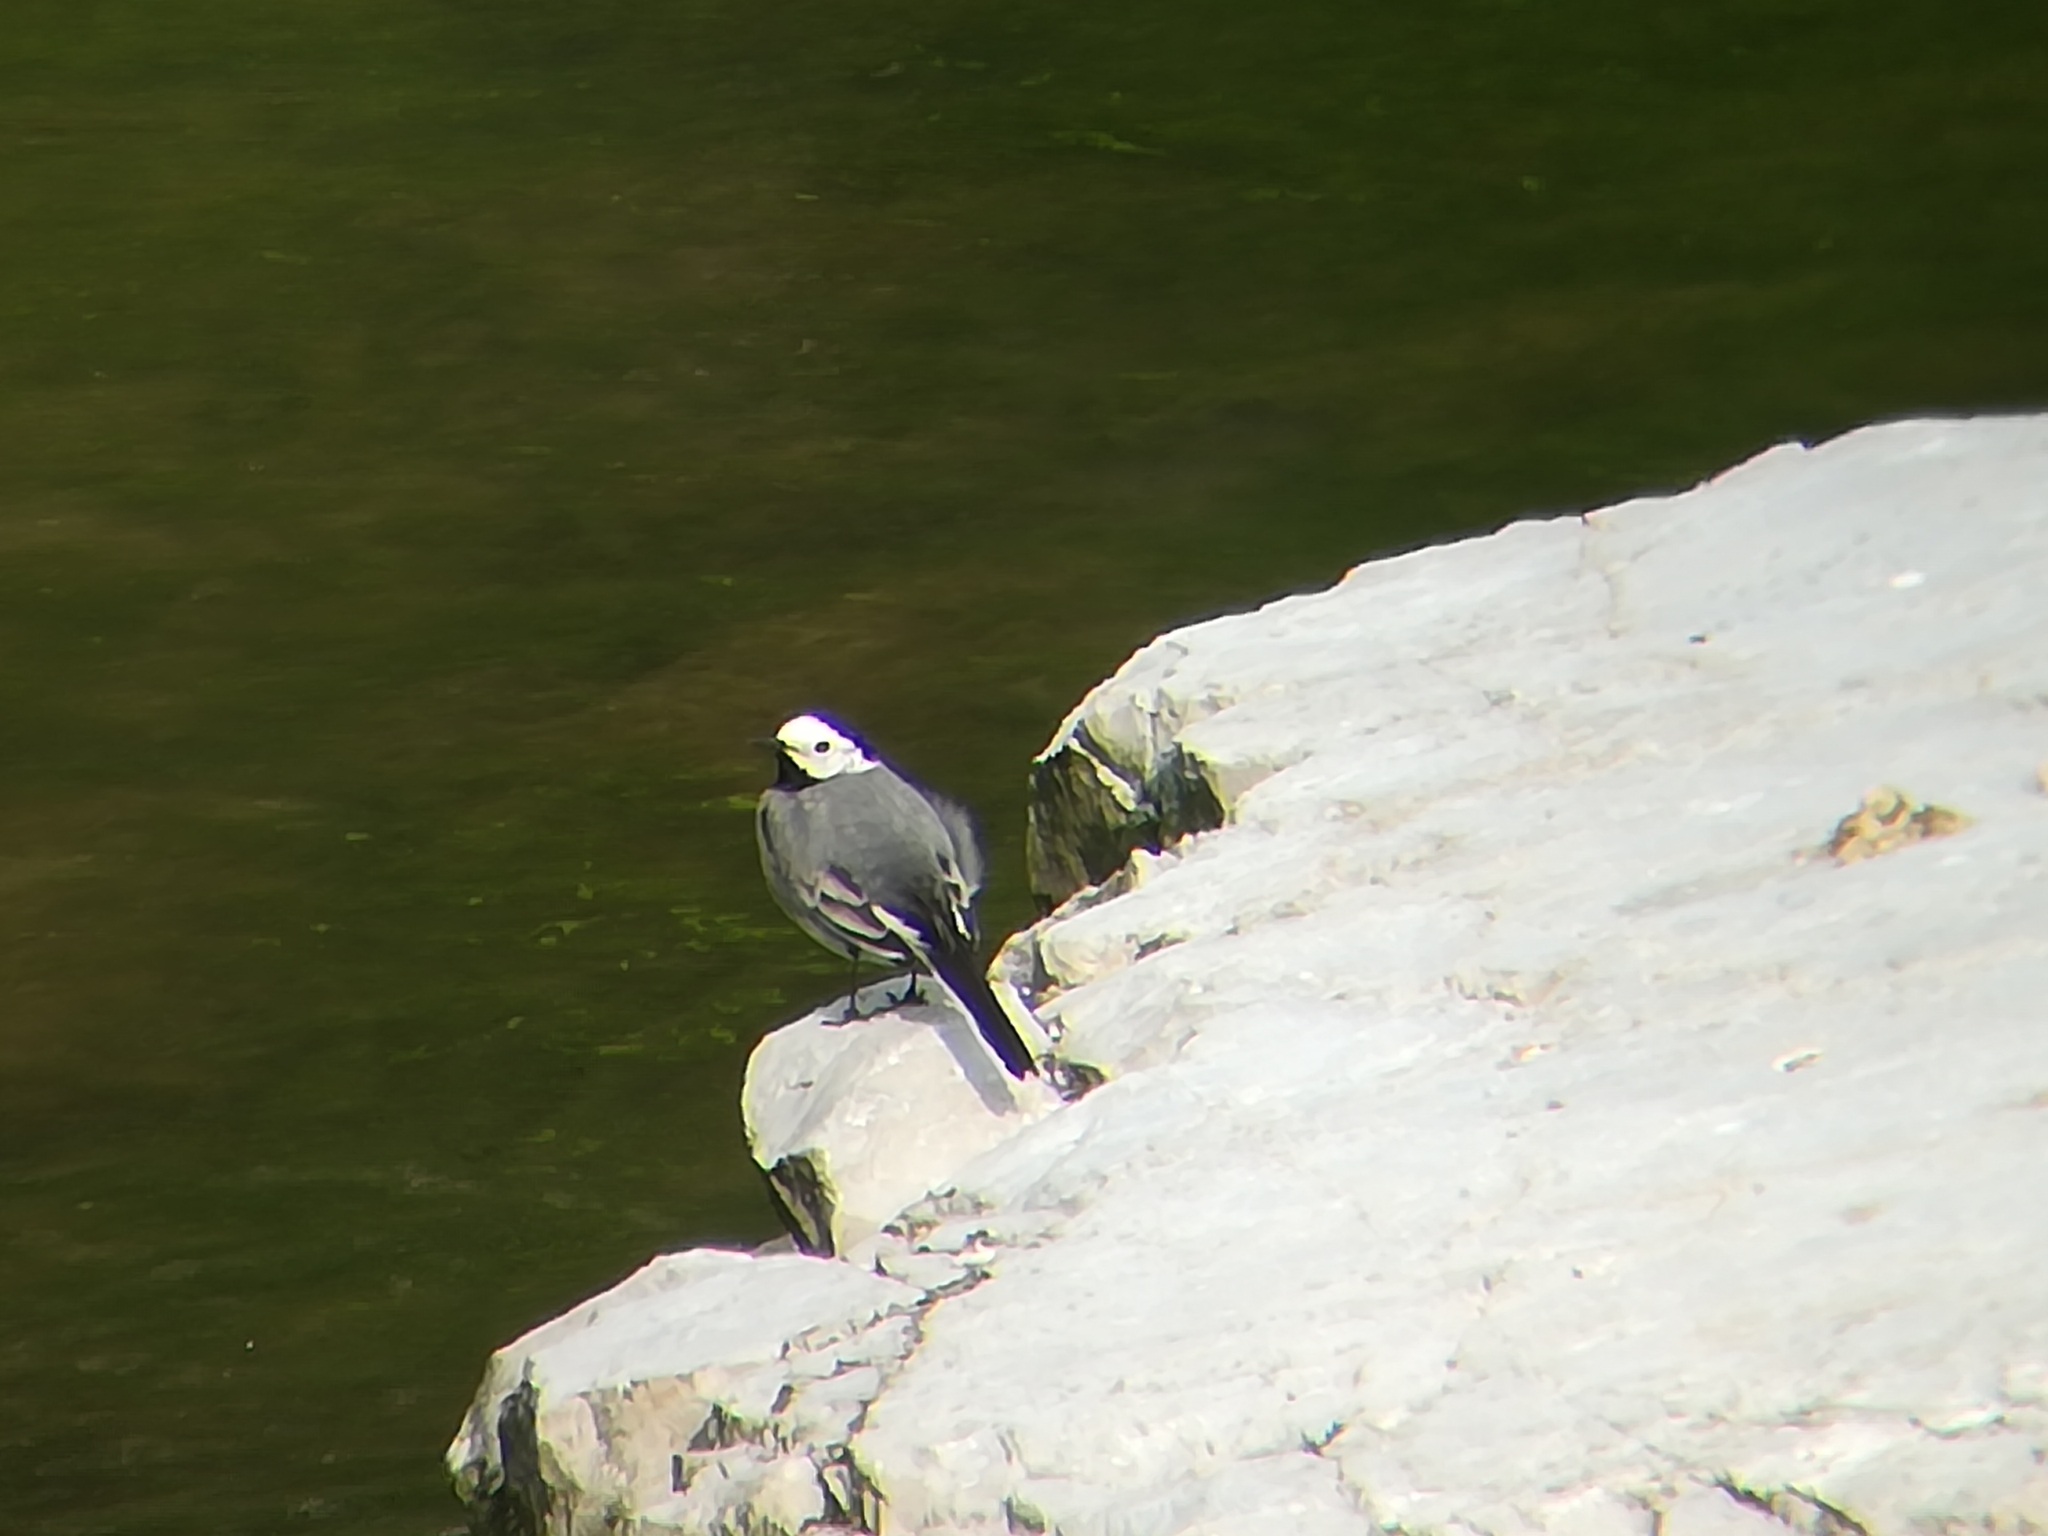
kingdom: Animalia
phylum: Chordata
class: Aves
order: Passeriformes
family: Motacillidae
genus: Motacilla
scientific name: Motacilla alba
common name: White wagtail
